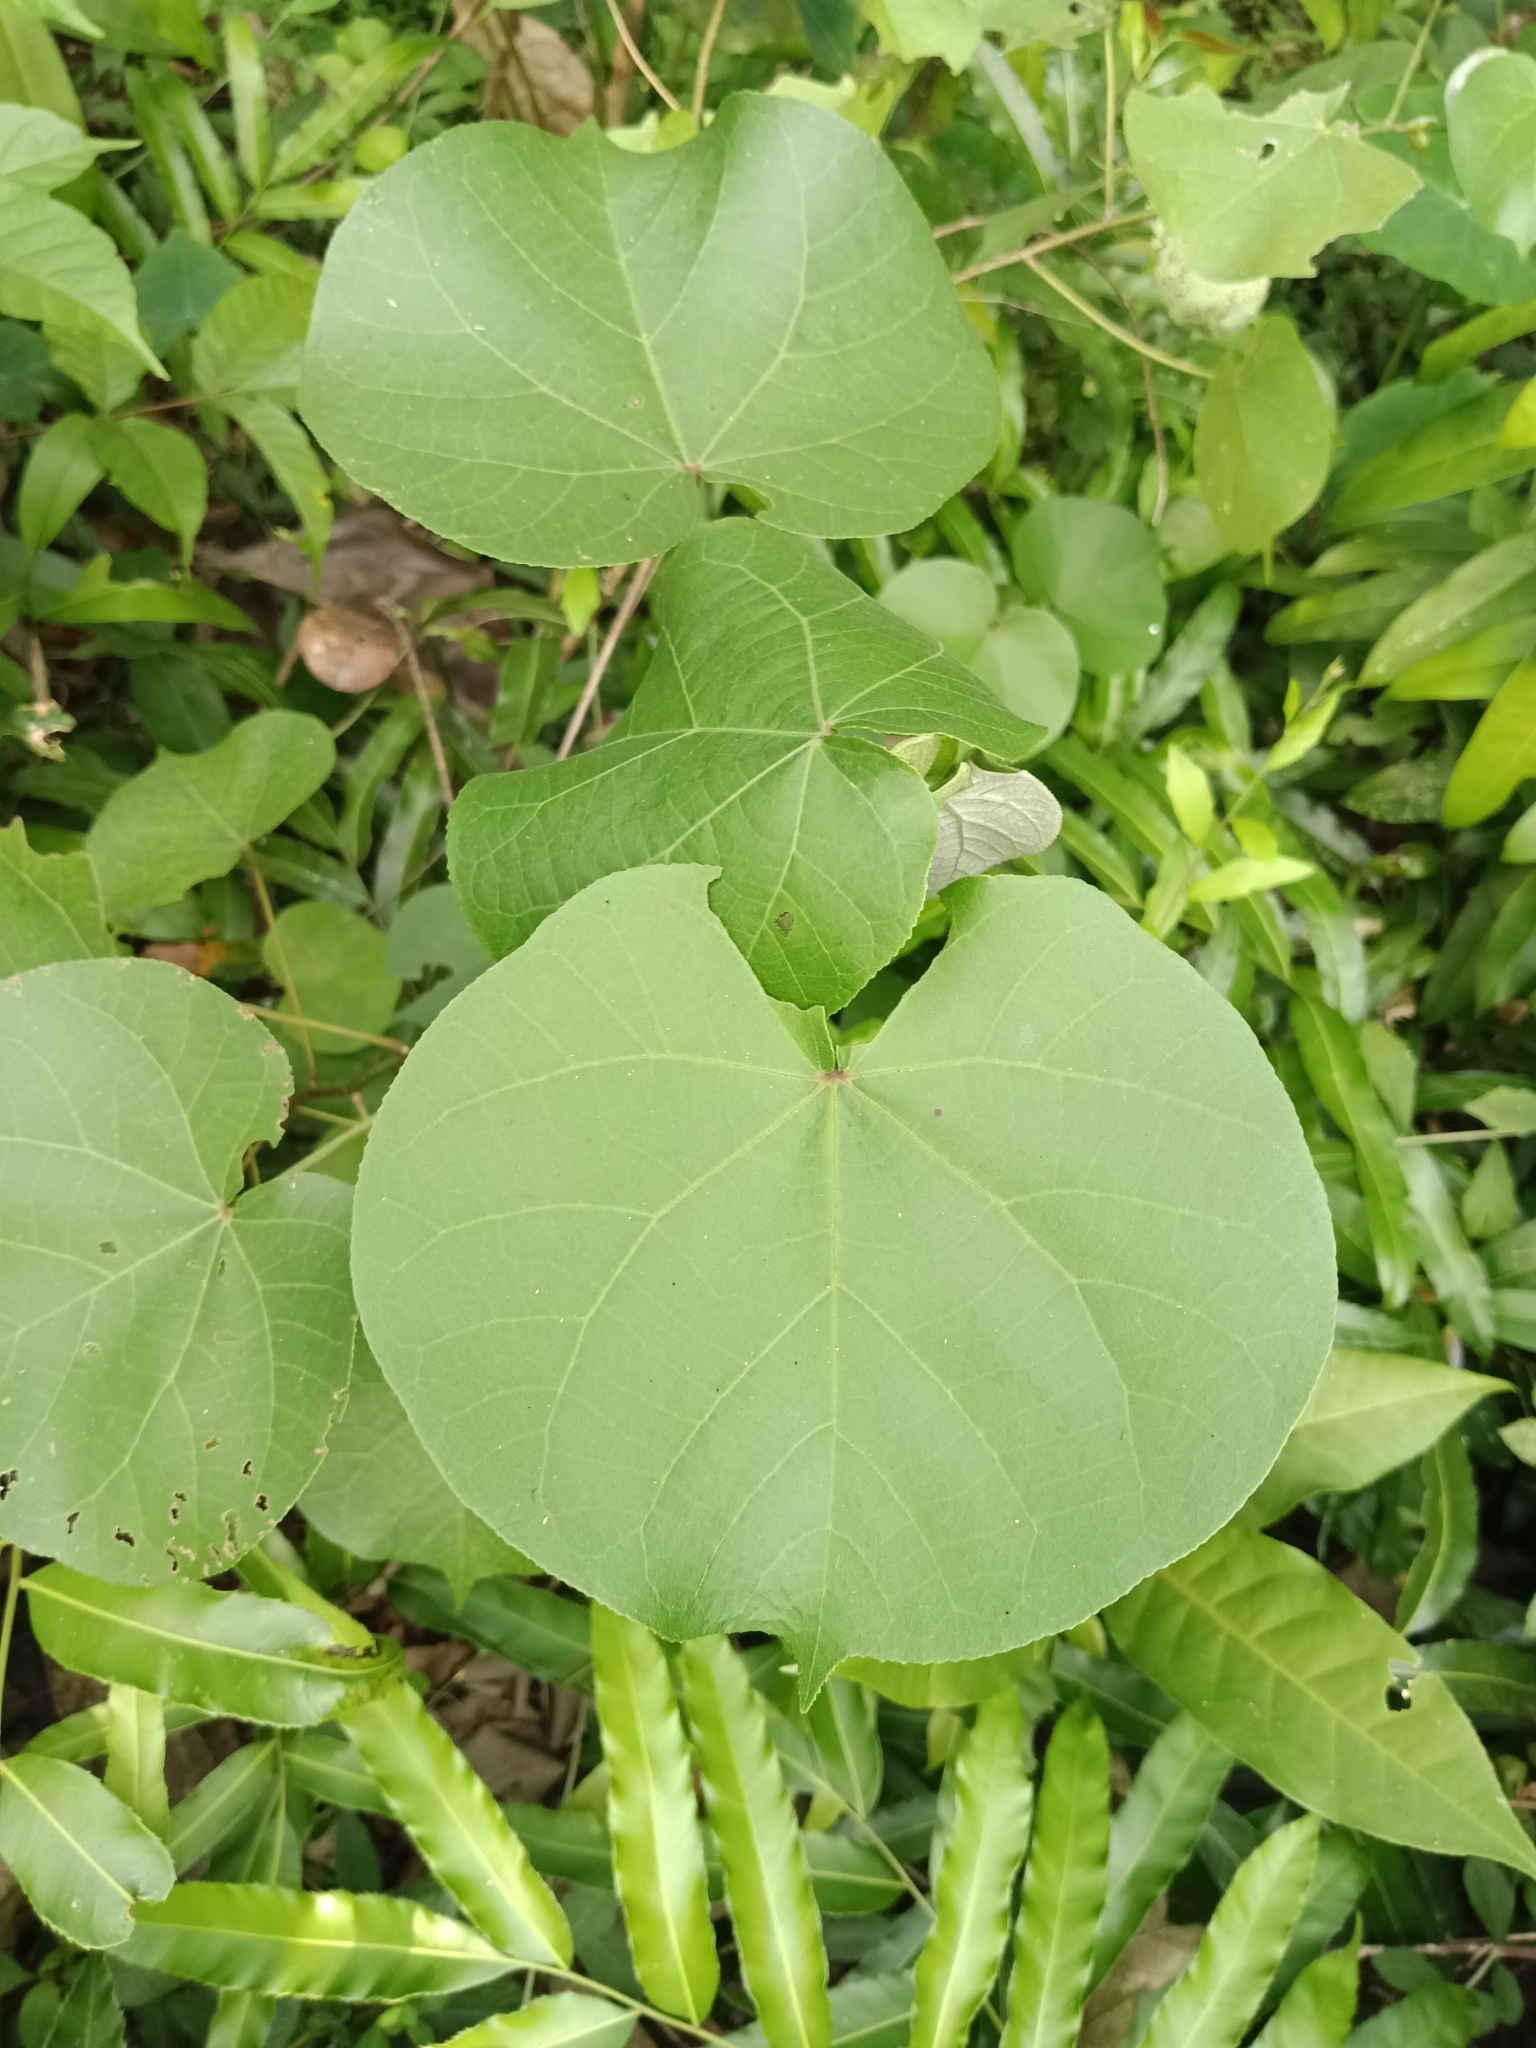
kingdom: Plantae
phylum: Tracheophyta
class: Magnoliopsida
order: Malvales
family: Malvaceae
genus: Talipariti
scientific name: Talipariti tiliaceum
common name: Sea hibiscus
